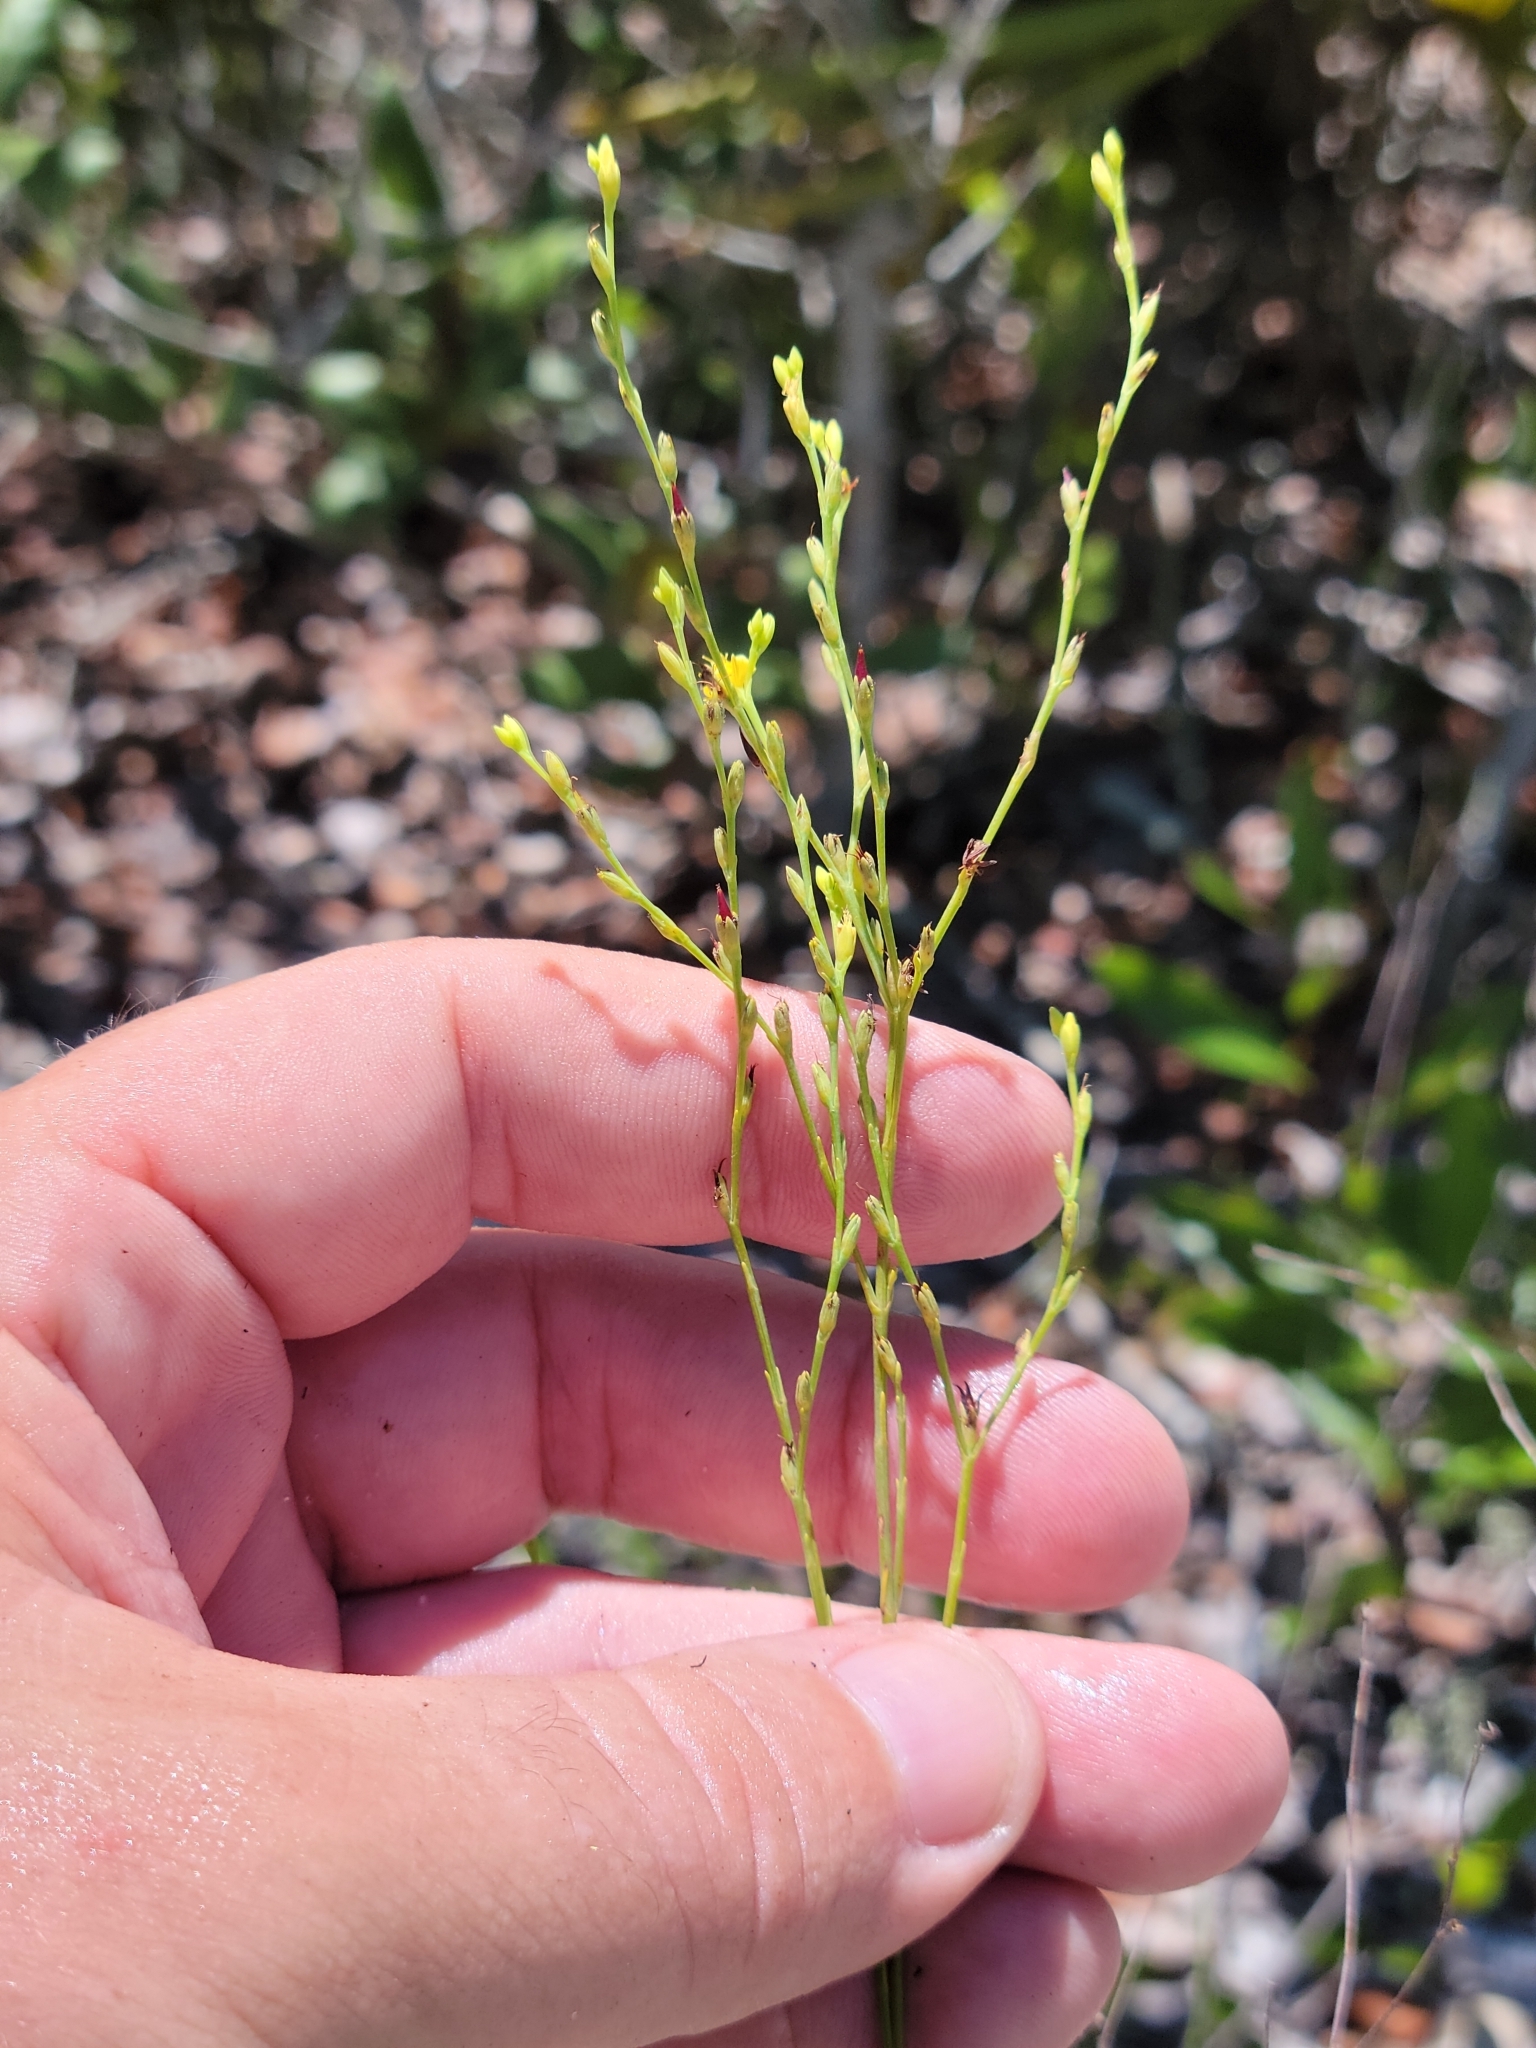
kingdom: Plantae
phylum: Tracheophyta
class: Magnoliopsida
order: Malpighiales
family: Hypericaceae
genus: Hypericum
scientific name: Hypericum cumulicola
